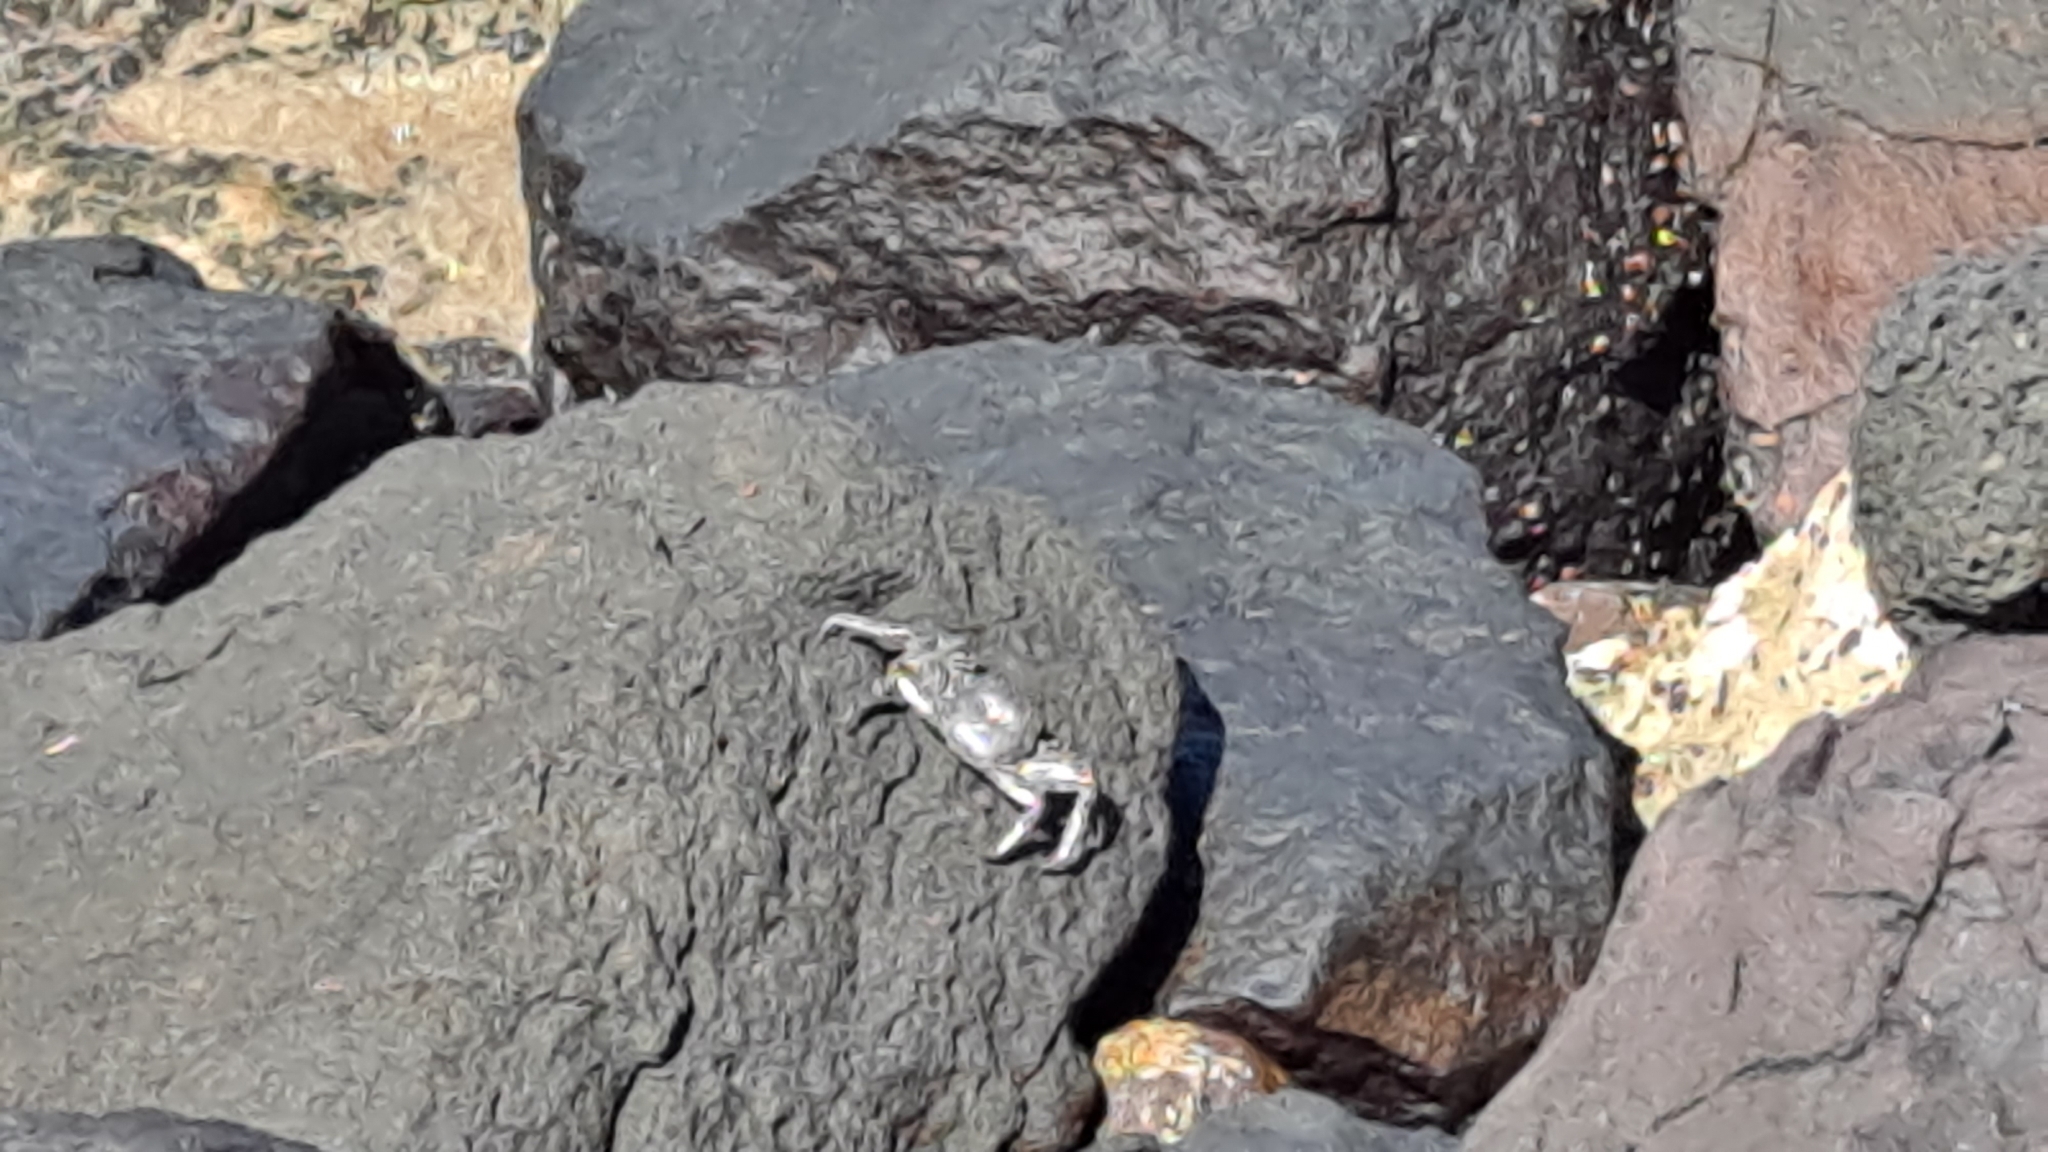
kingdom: Animalia
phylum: Arthropoda
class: Malacostraca
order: Decapoda
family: Grapsidae
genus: Grapsus
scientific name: Grapsus adscensionis
